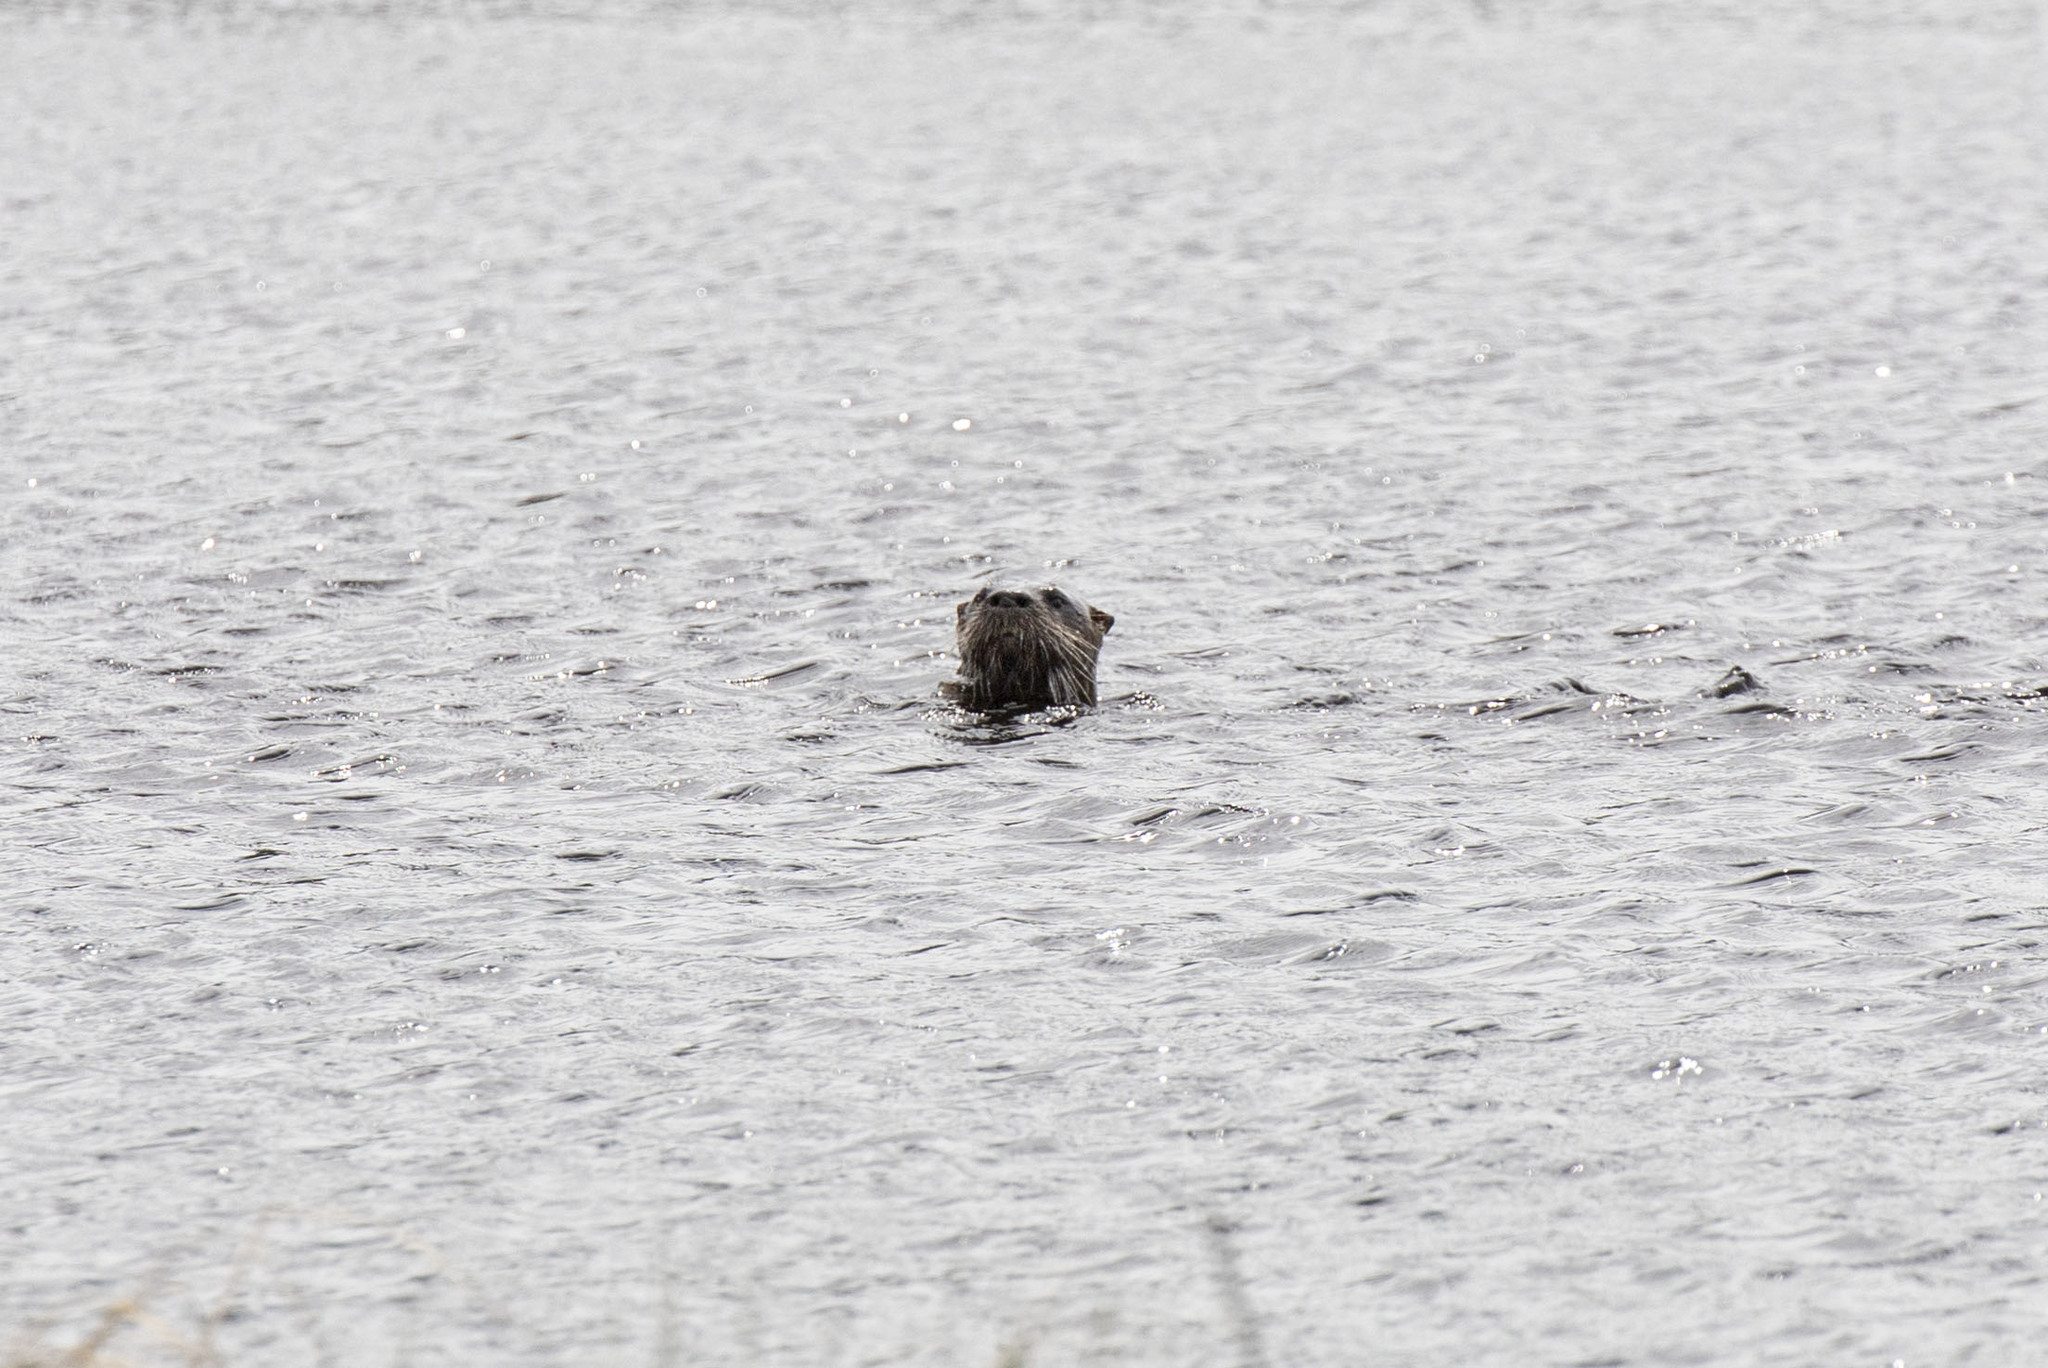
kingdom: Animalia
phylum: Chordata
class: Mammalia
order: Carnivora
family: Mustelidae
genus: Lontra
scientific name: Lontra canadensis
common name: North american river otter
